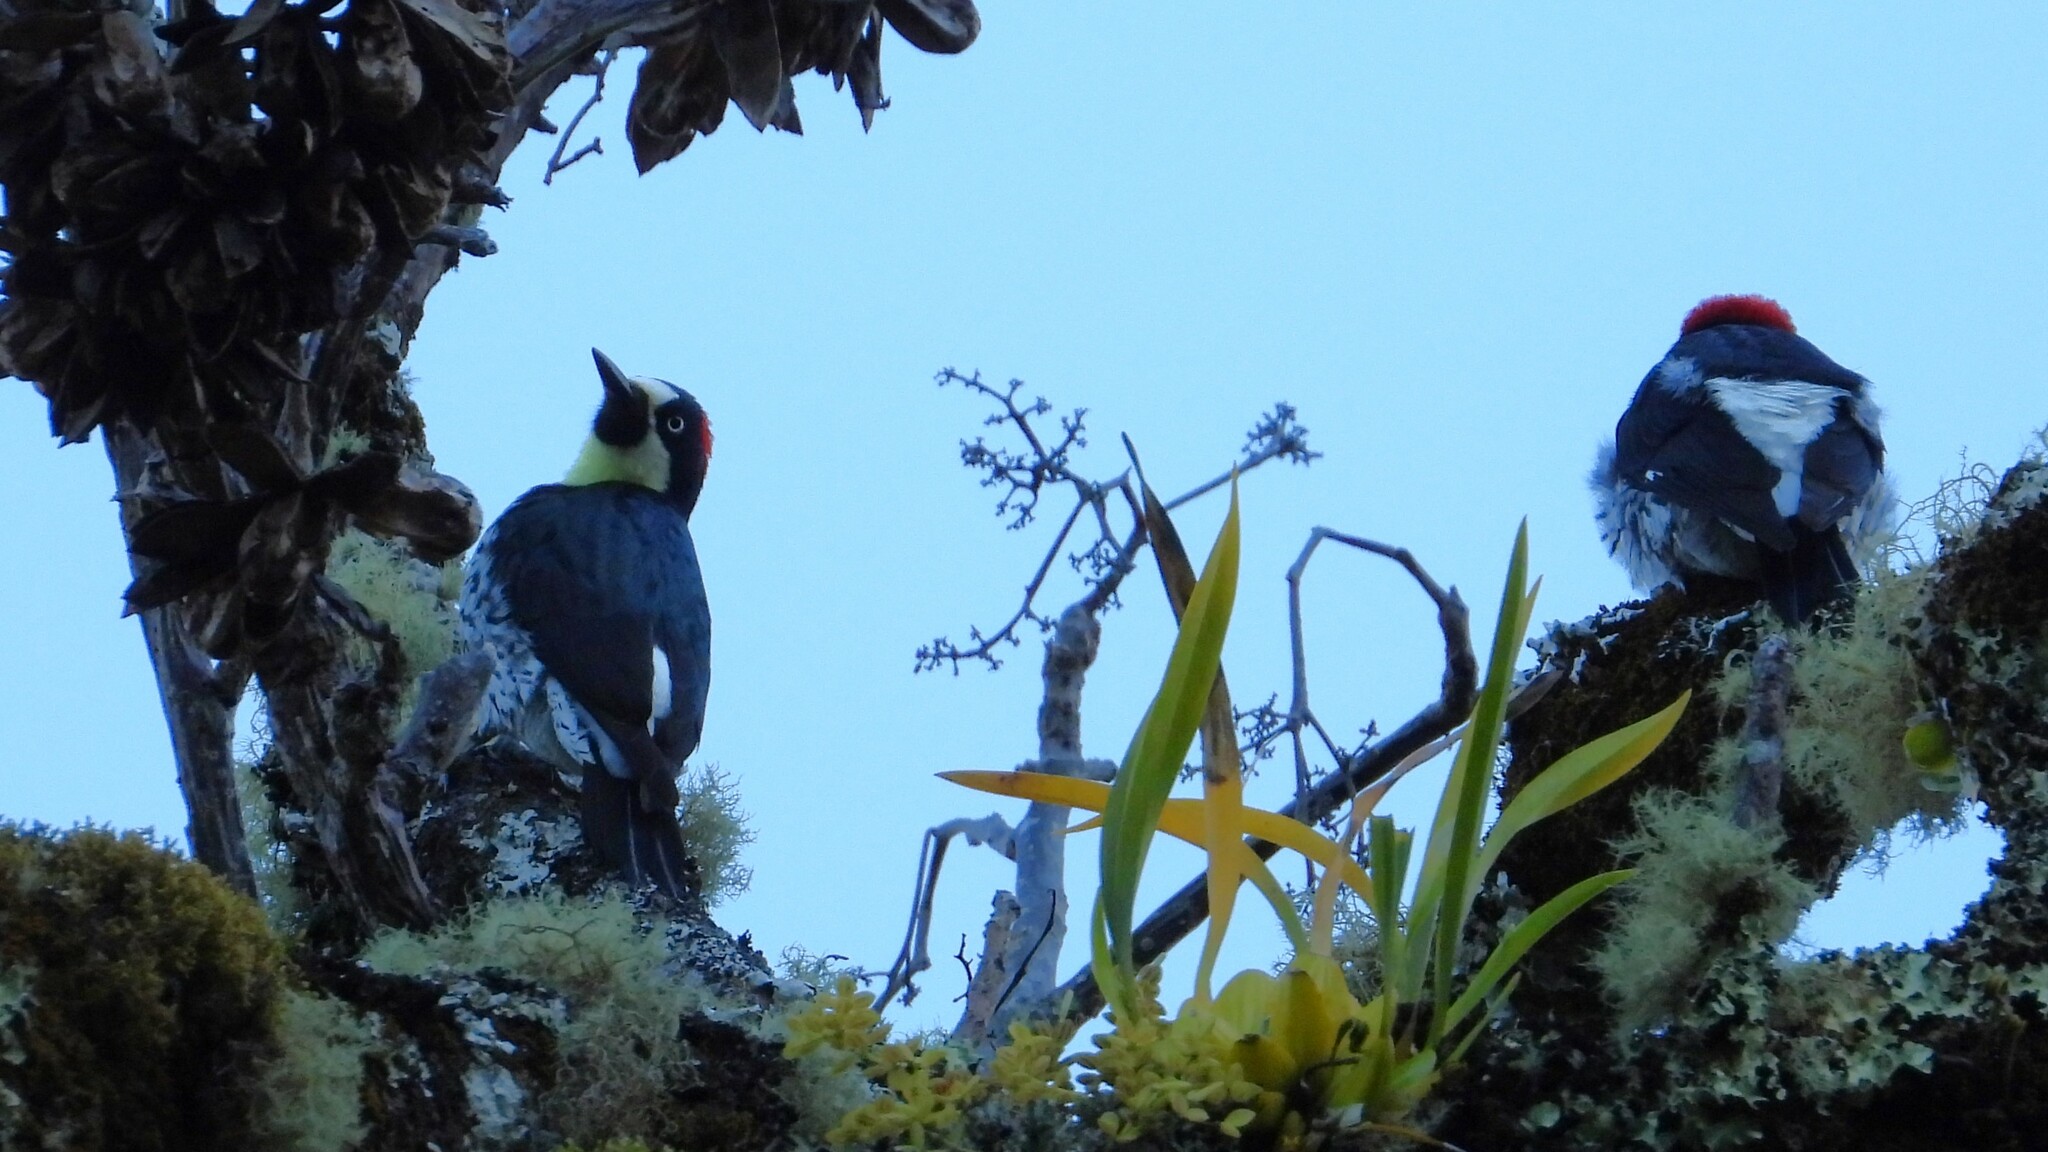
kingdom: Animalia
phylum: Chordata
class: Aves
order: Piciformes
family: Picidae
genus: Melanerpes
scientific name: Melanerpes formicivorus
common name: Acorn woodpecker
